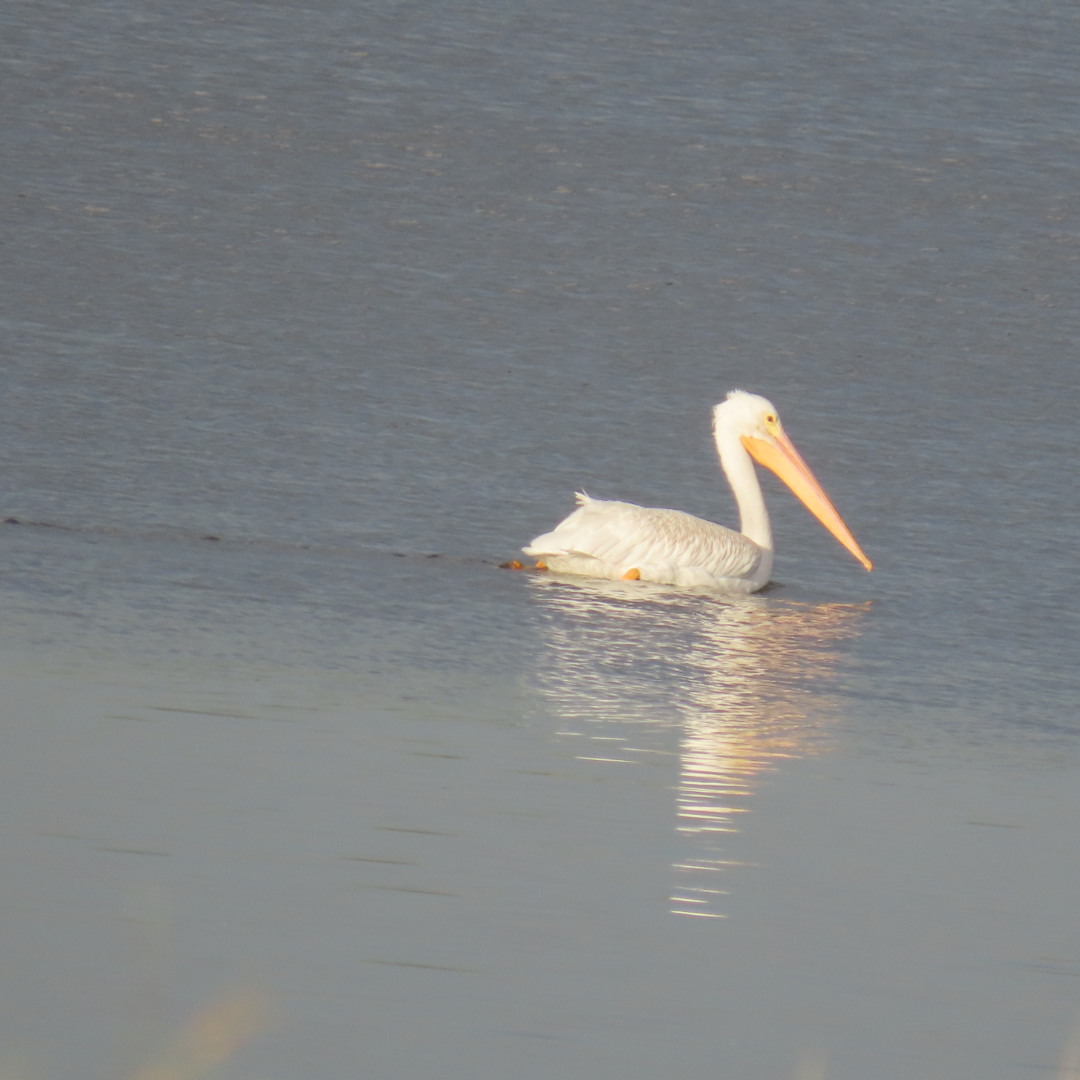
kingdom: Animalia
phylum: Chordata
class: Aves
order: Pelecaniformes
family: Pelecanidae
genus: Pelecanus
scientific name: Pelecanus erythrorhynchos
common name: American white pelican
